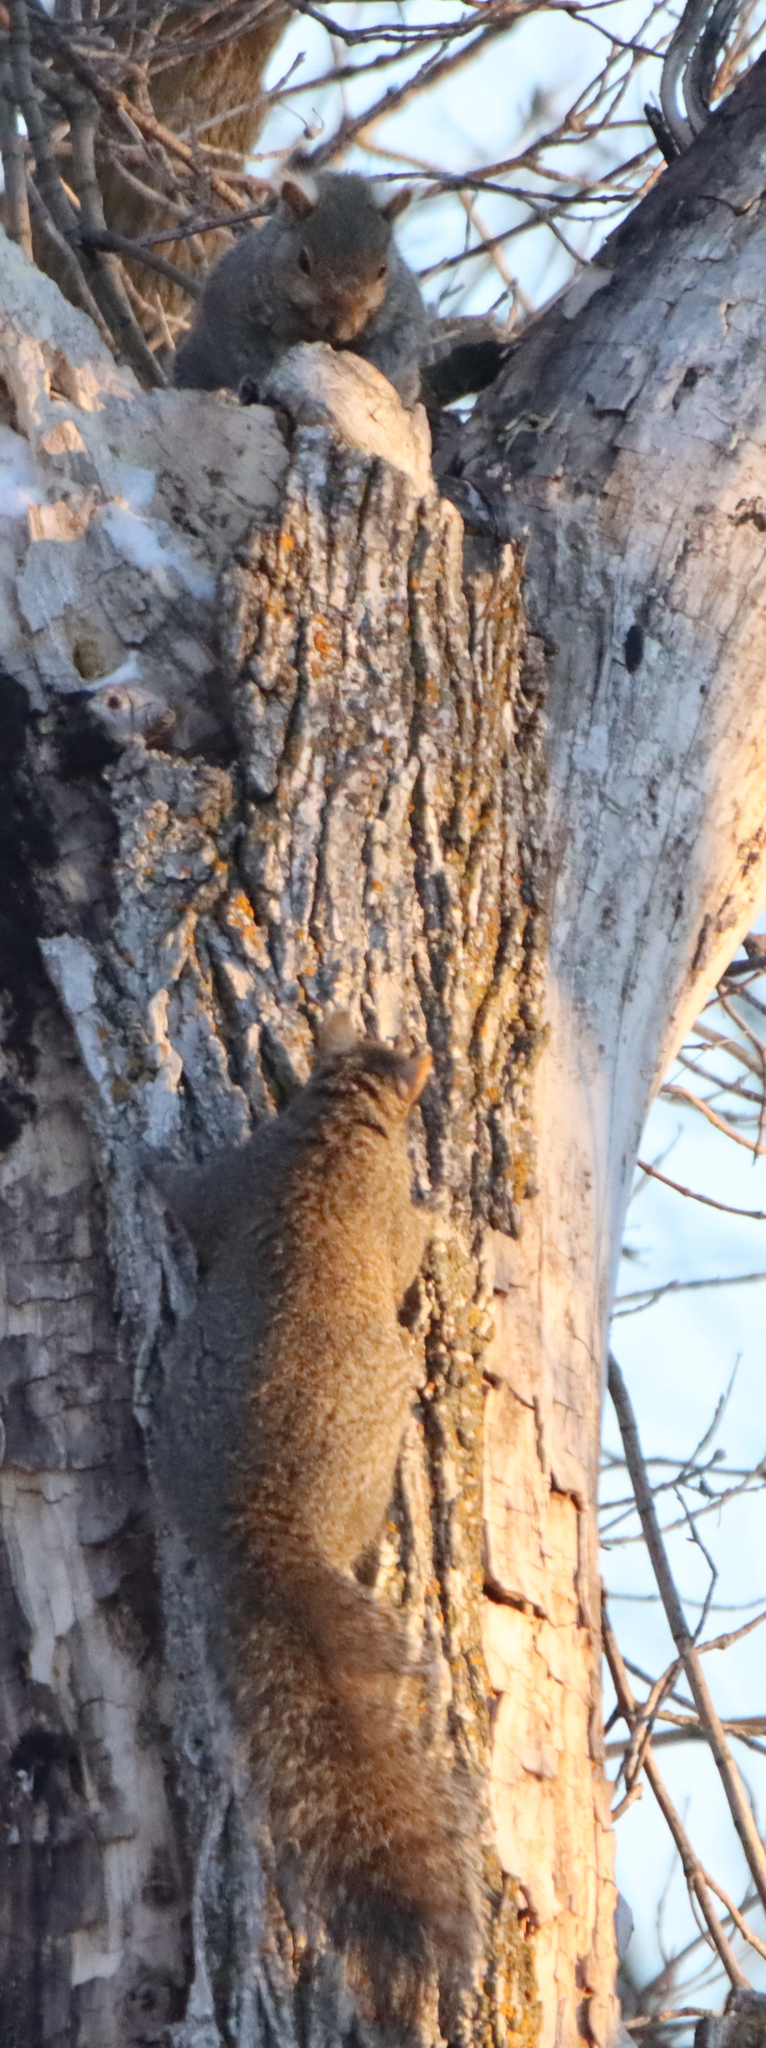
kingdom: Animalia
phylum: Chordata
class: Mammalia
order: Rodentia
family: Sciuridae
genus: Sciurus
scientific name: Sciurus carolinensis
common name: Eastern gray squirrel
